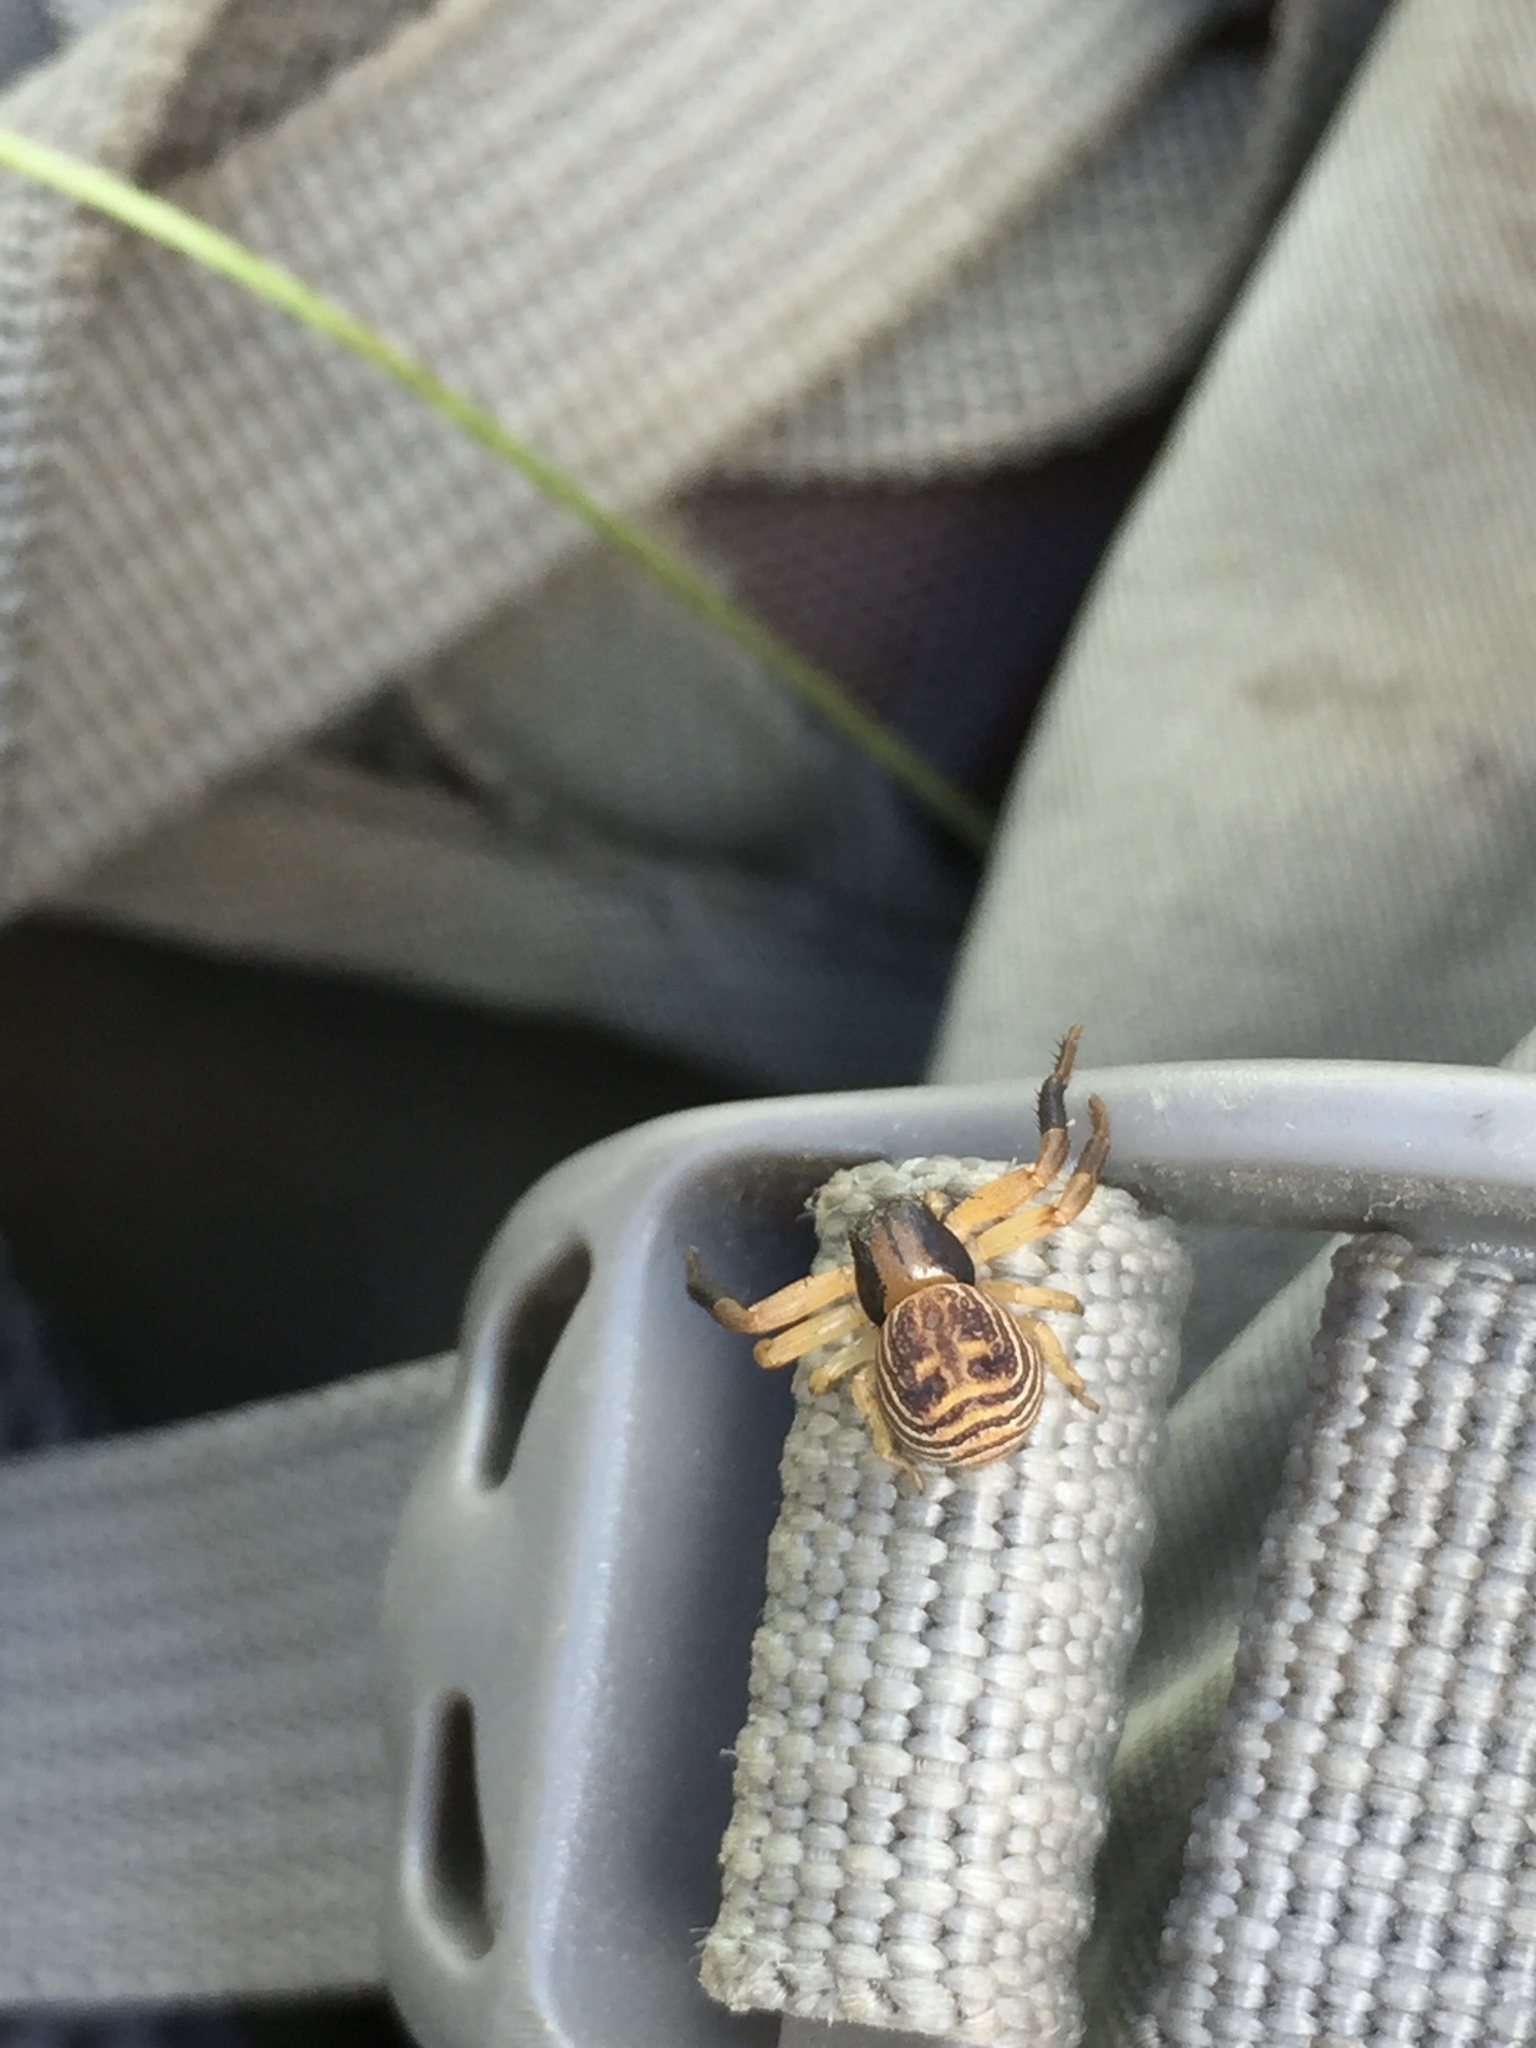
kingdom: Animalia
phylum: Arthropoda
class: Arachnida
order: Araneae
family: Thomisidae
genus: Xysticus
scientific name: Xysticus texanus
